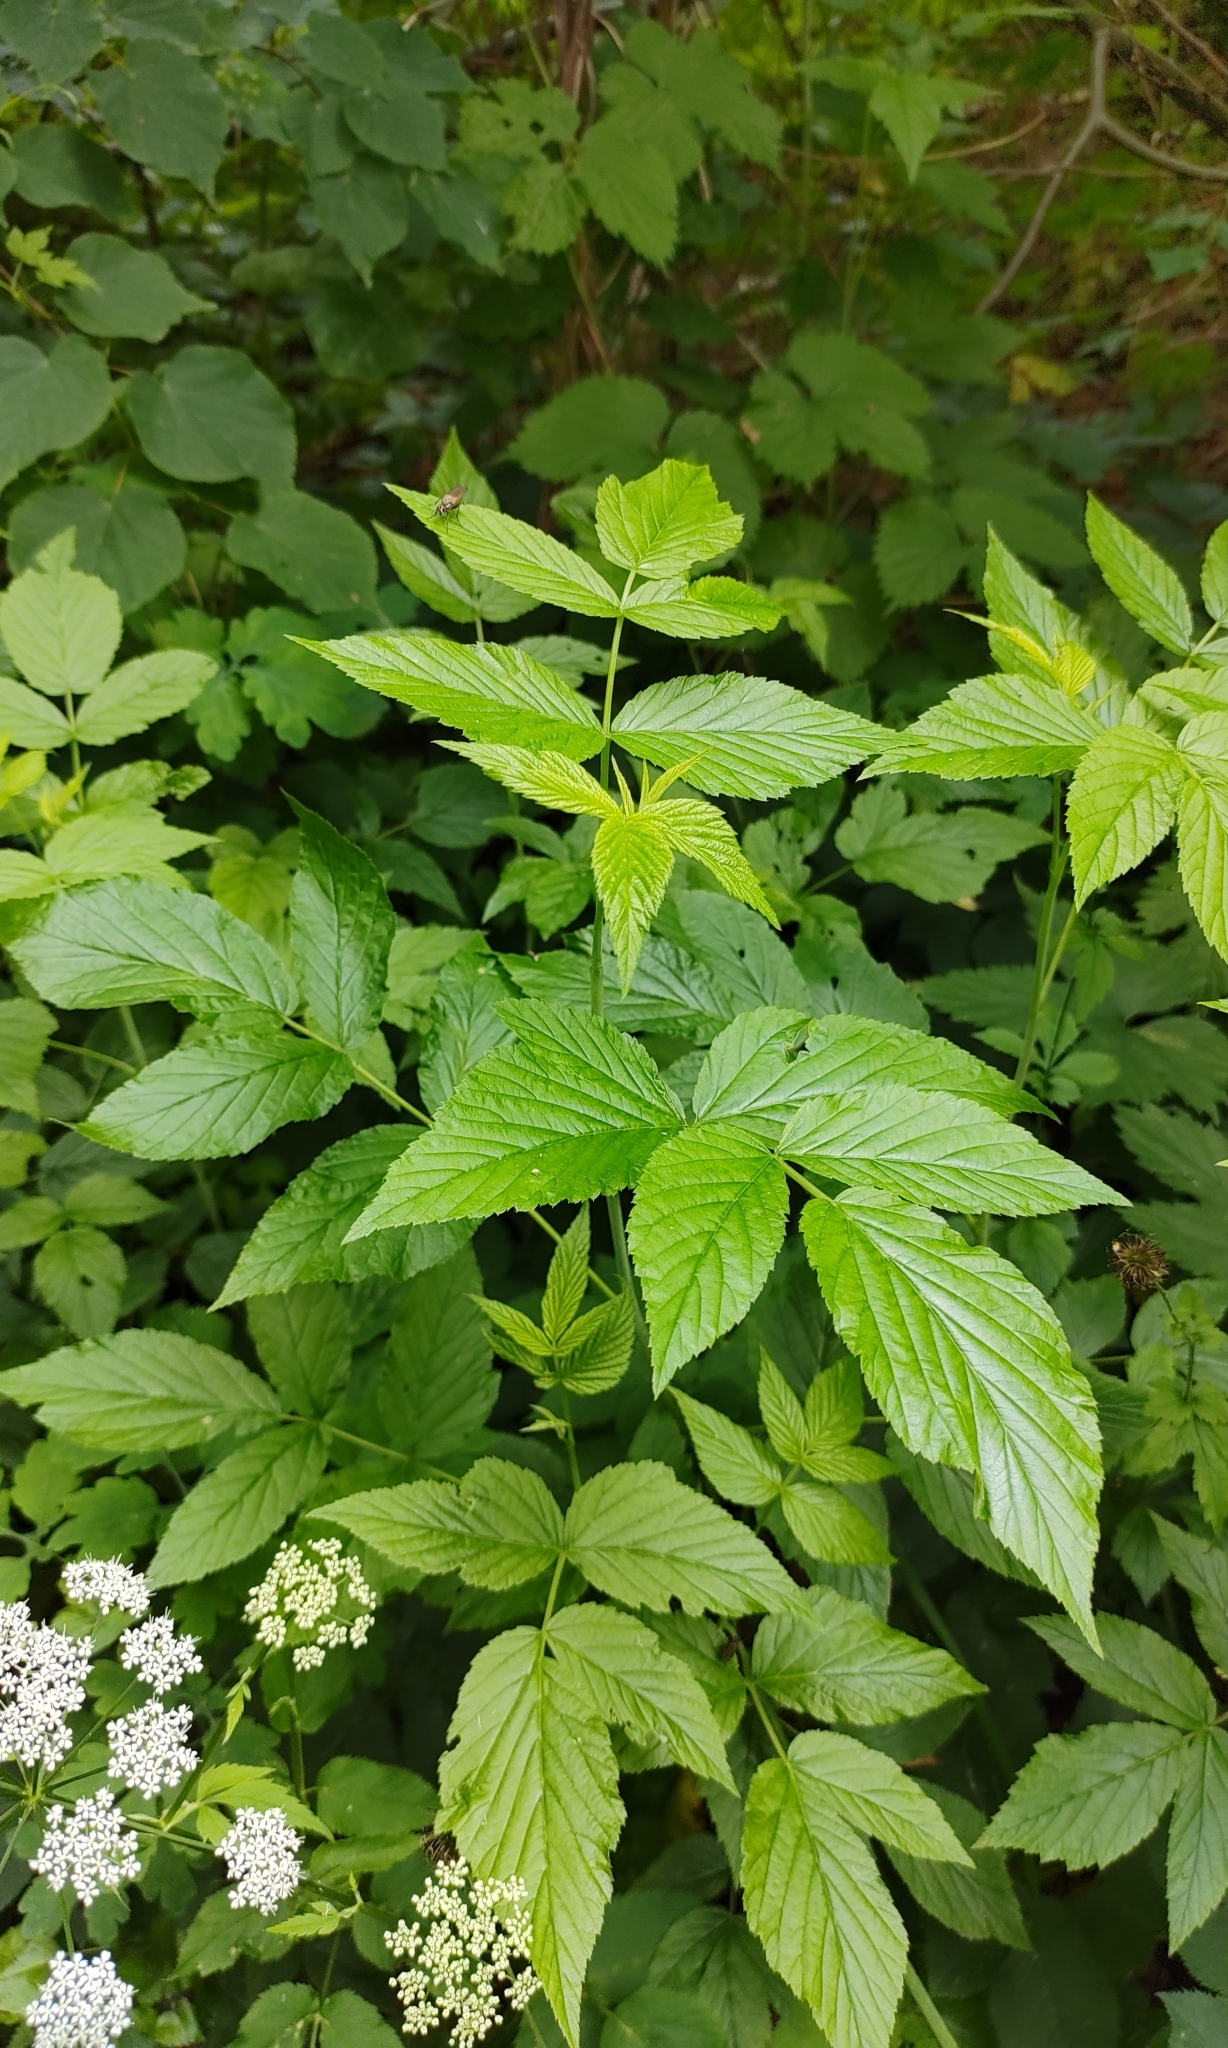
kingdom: Plantae
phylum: Tracheophyta
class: Magnoliopsida
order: Rosales
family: Rosaceae
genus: Rubus
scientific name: Rubus idaeus
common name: Raspberry
